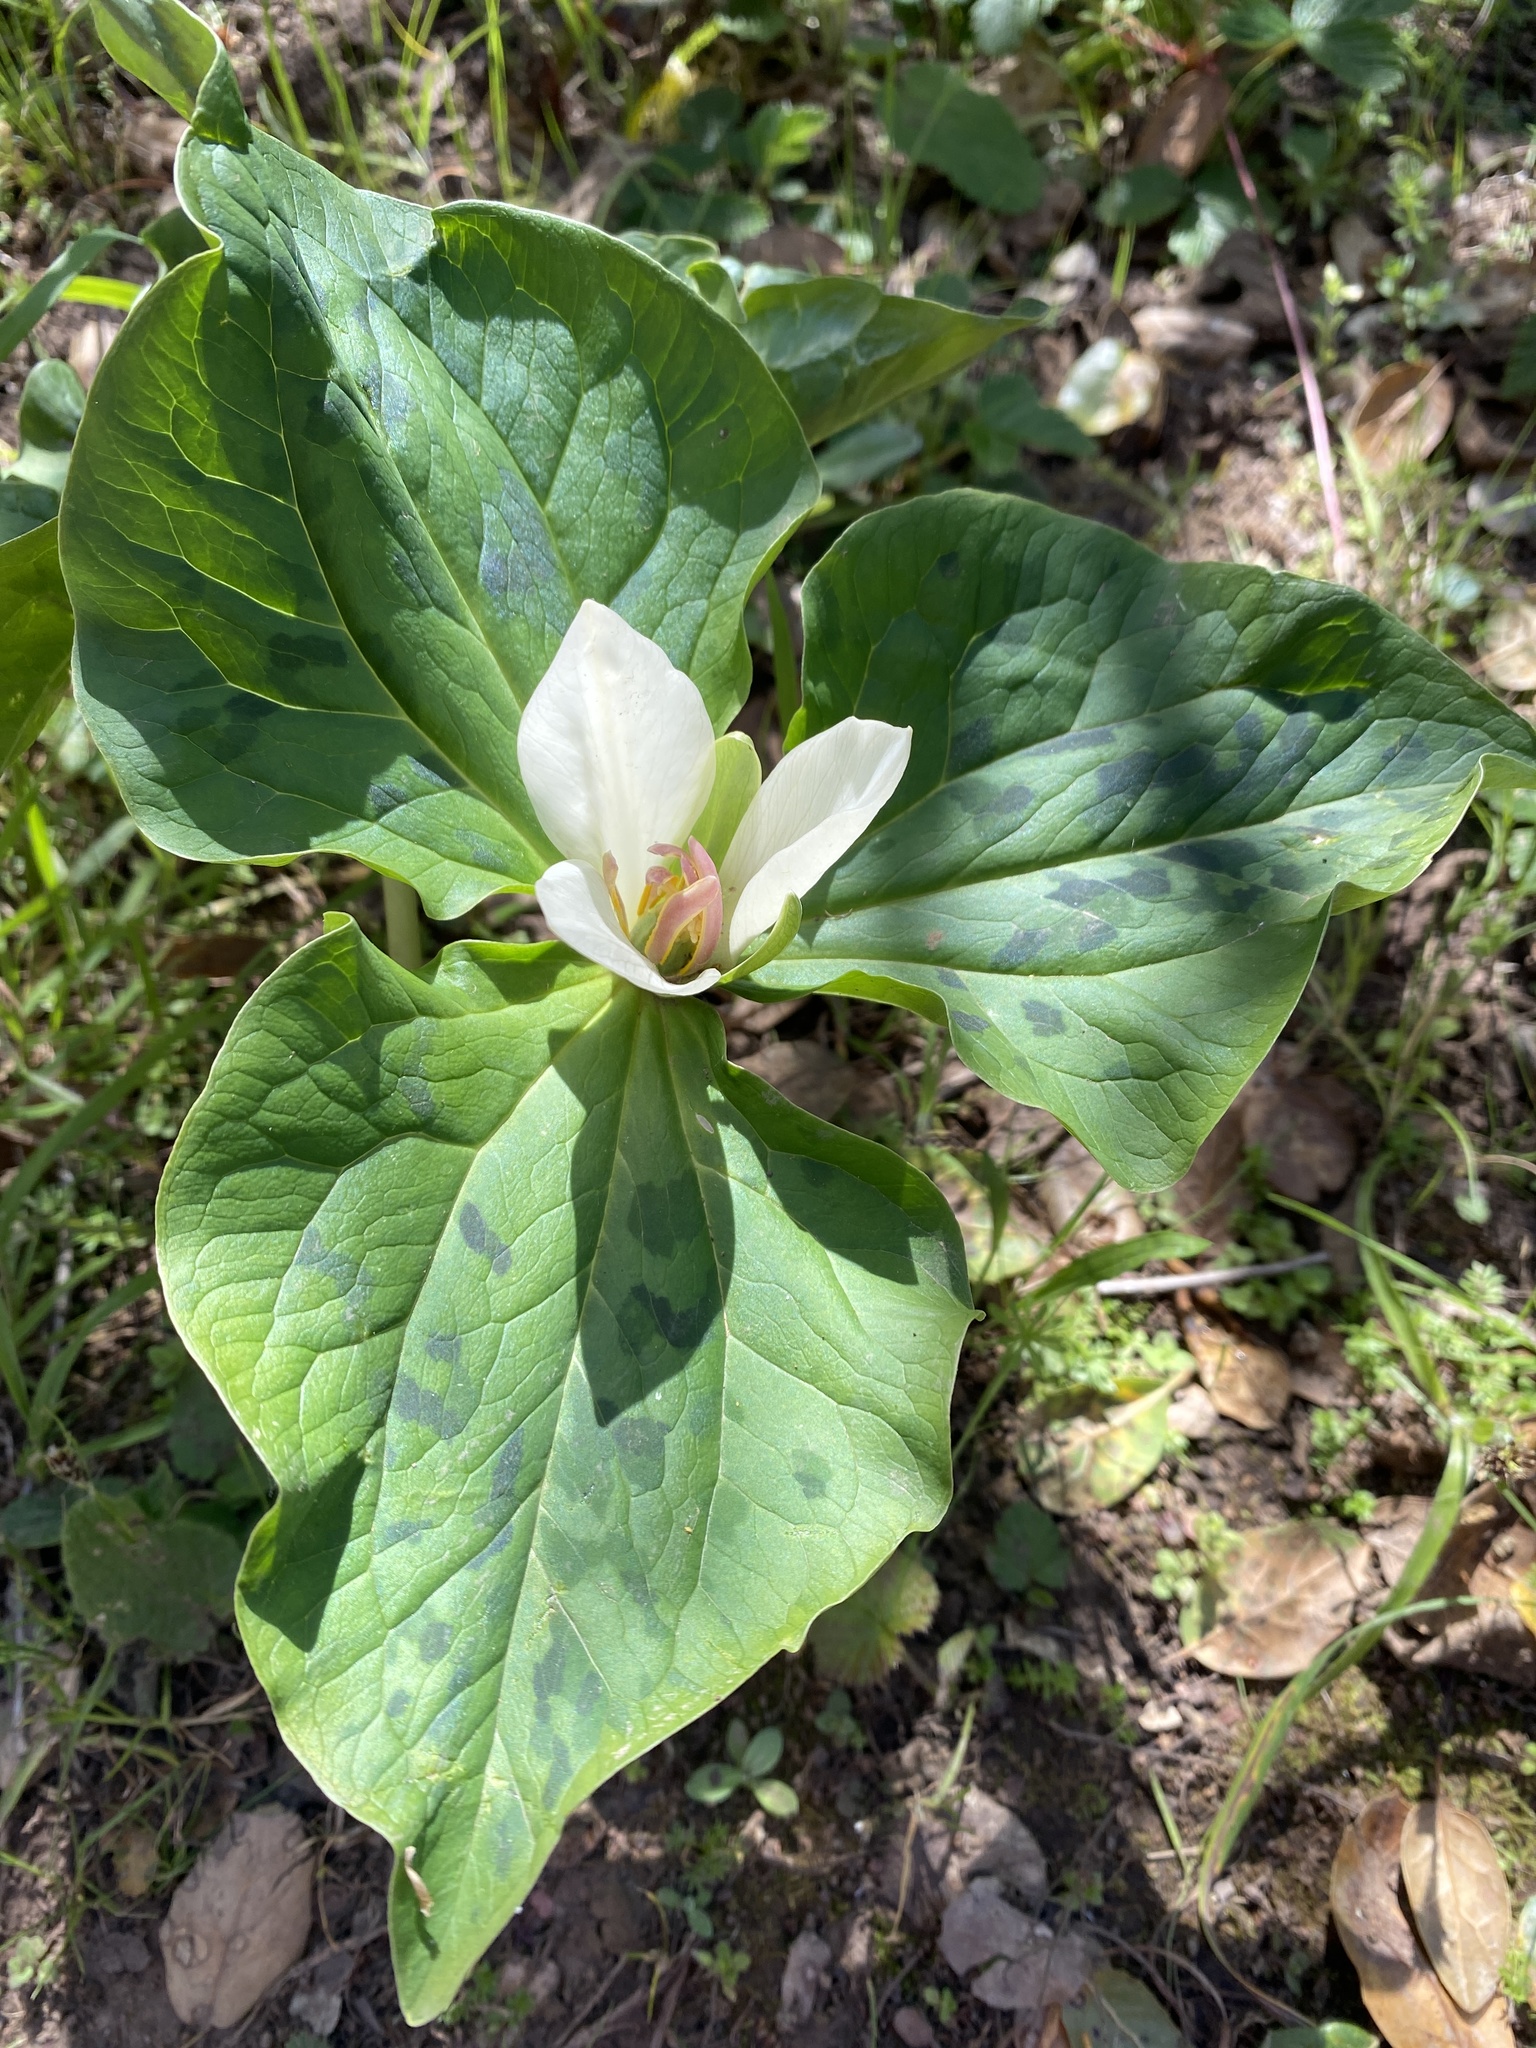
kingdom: Plantae
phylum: Tracheophyta
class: Liliopsida
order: Liliales
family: Melanthiaceae
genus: Trillium
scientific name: Trillium chloropetalum
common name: Giant trillium
